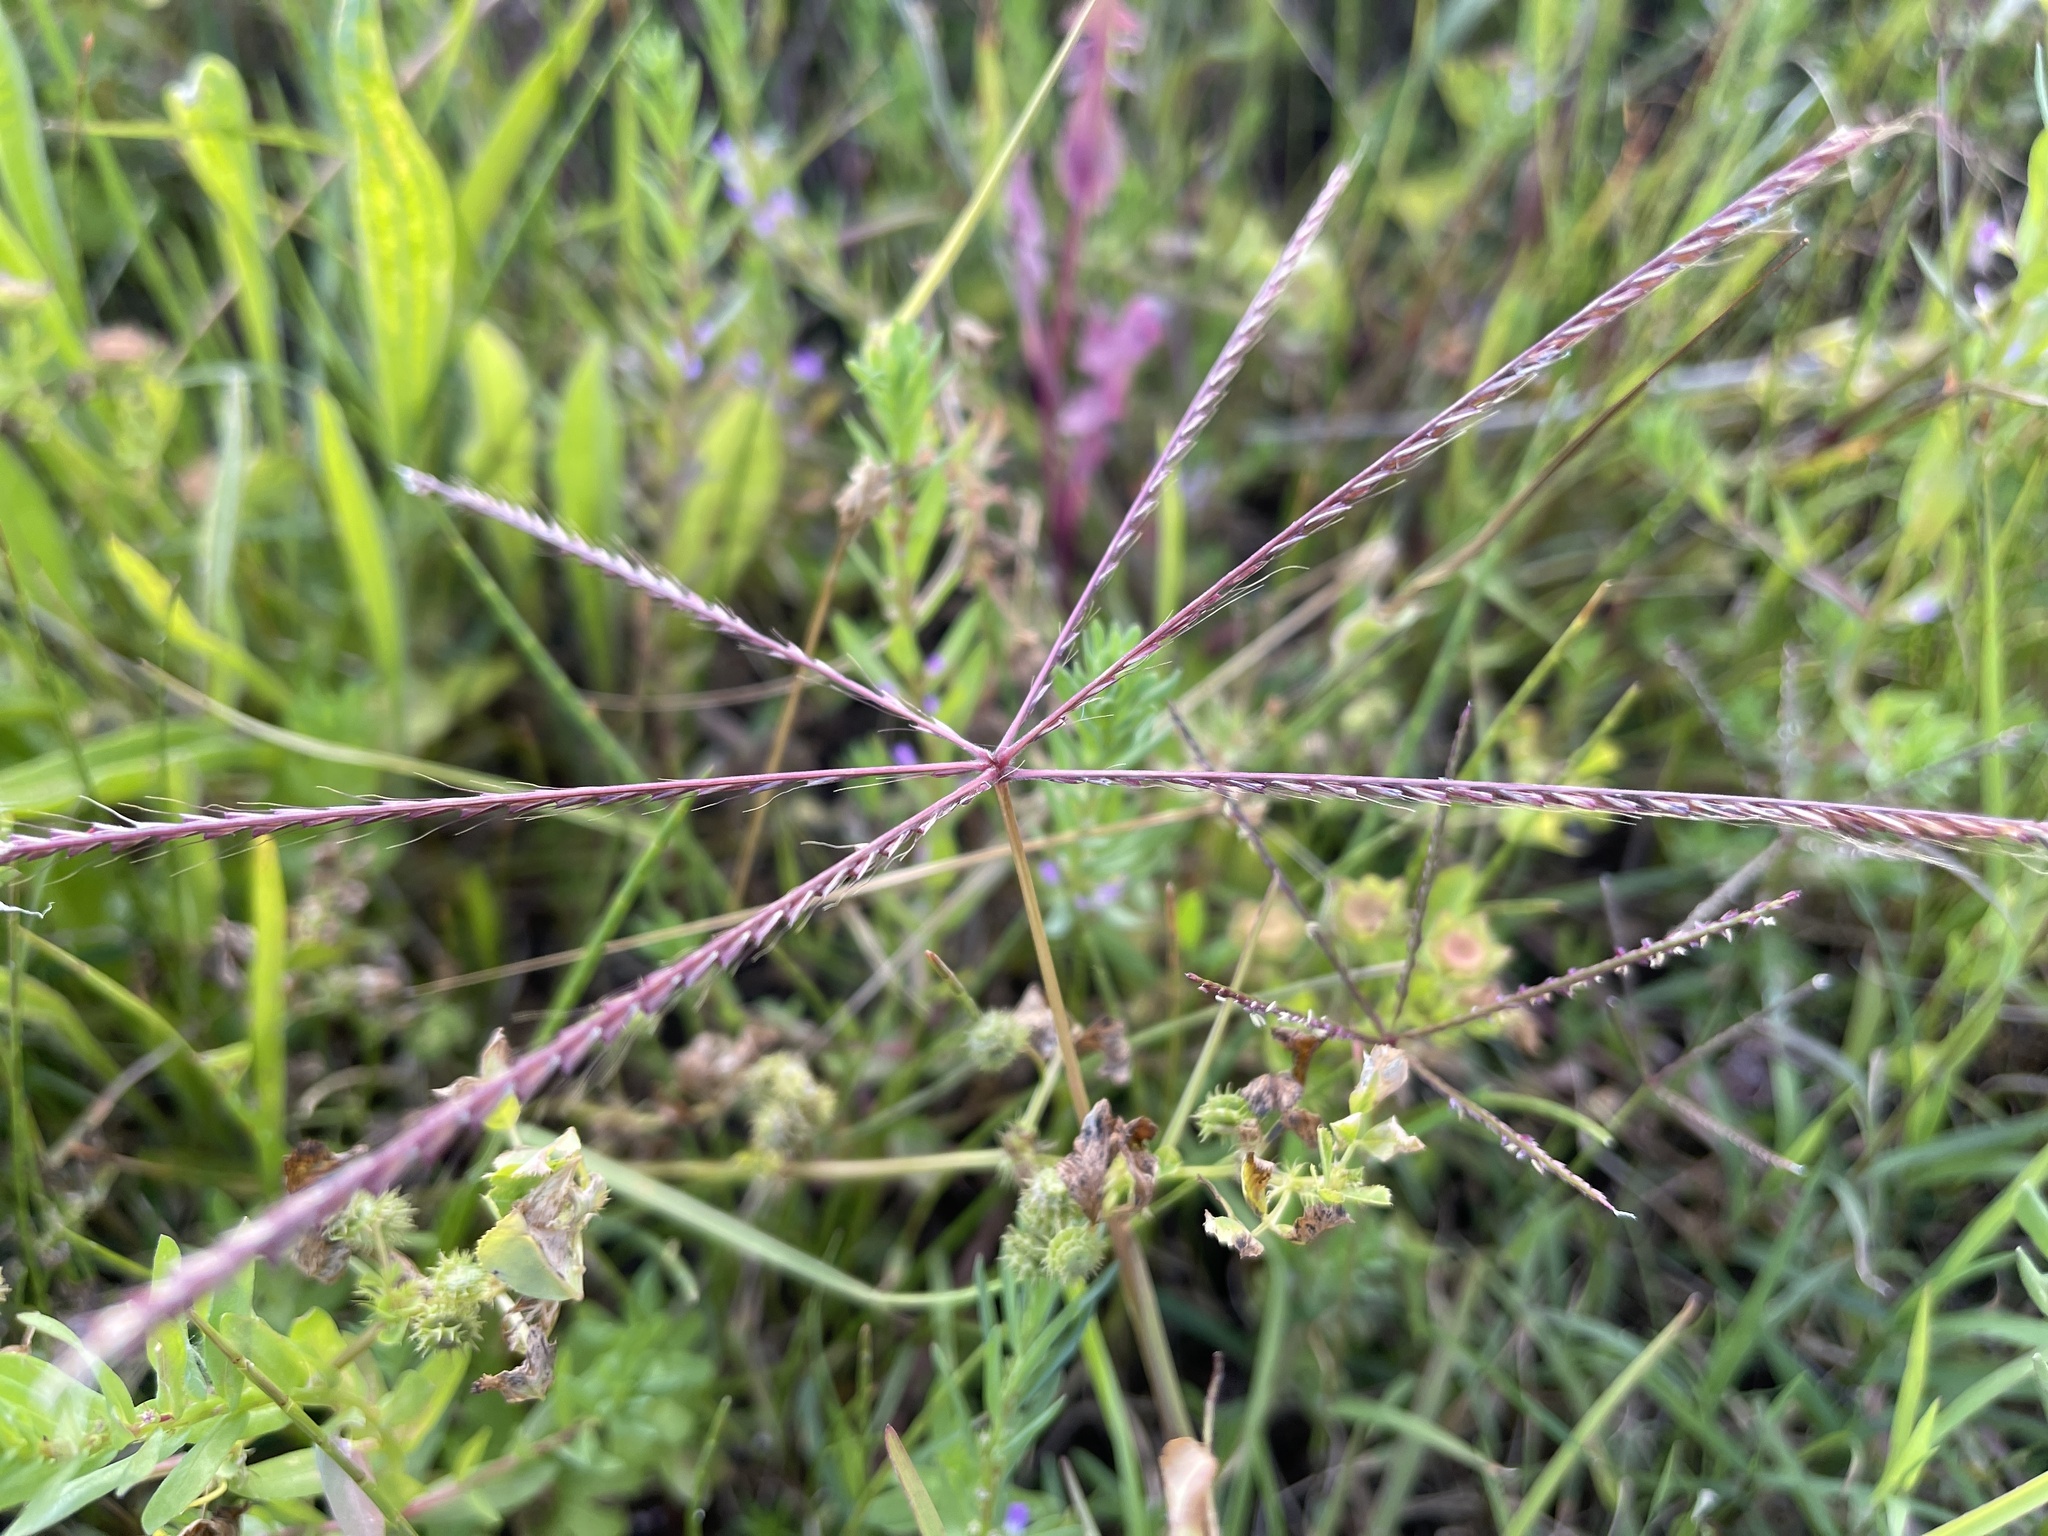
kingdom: Plantae
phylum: Tracheophyta
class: Liliopsida
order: Poales
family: Poaceae
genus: Chloris
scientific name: Chloris truncata
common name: Windmill-grass
